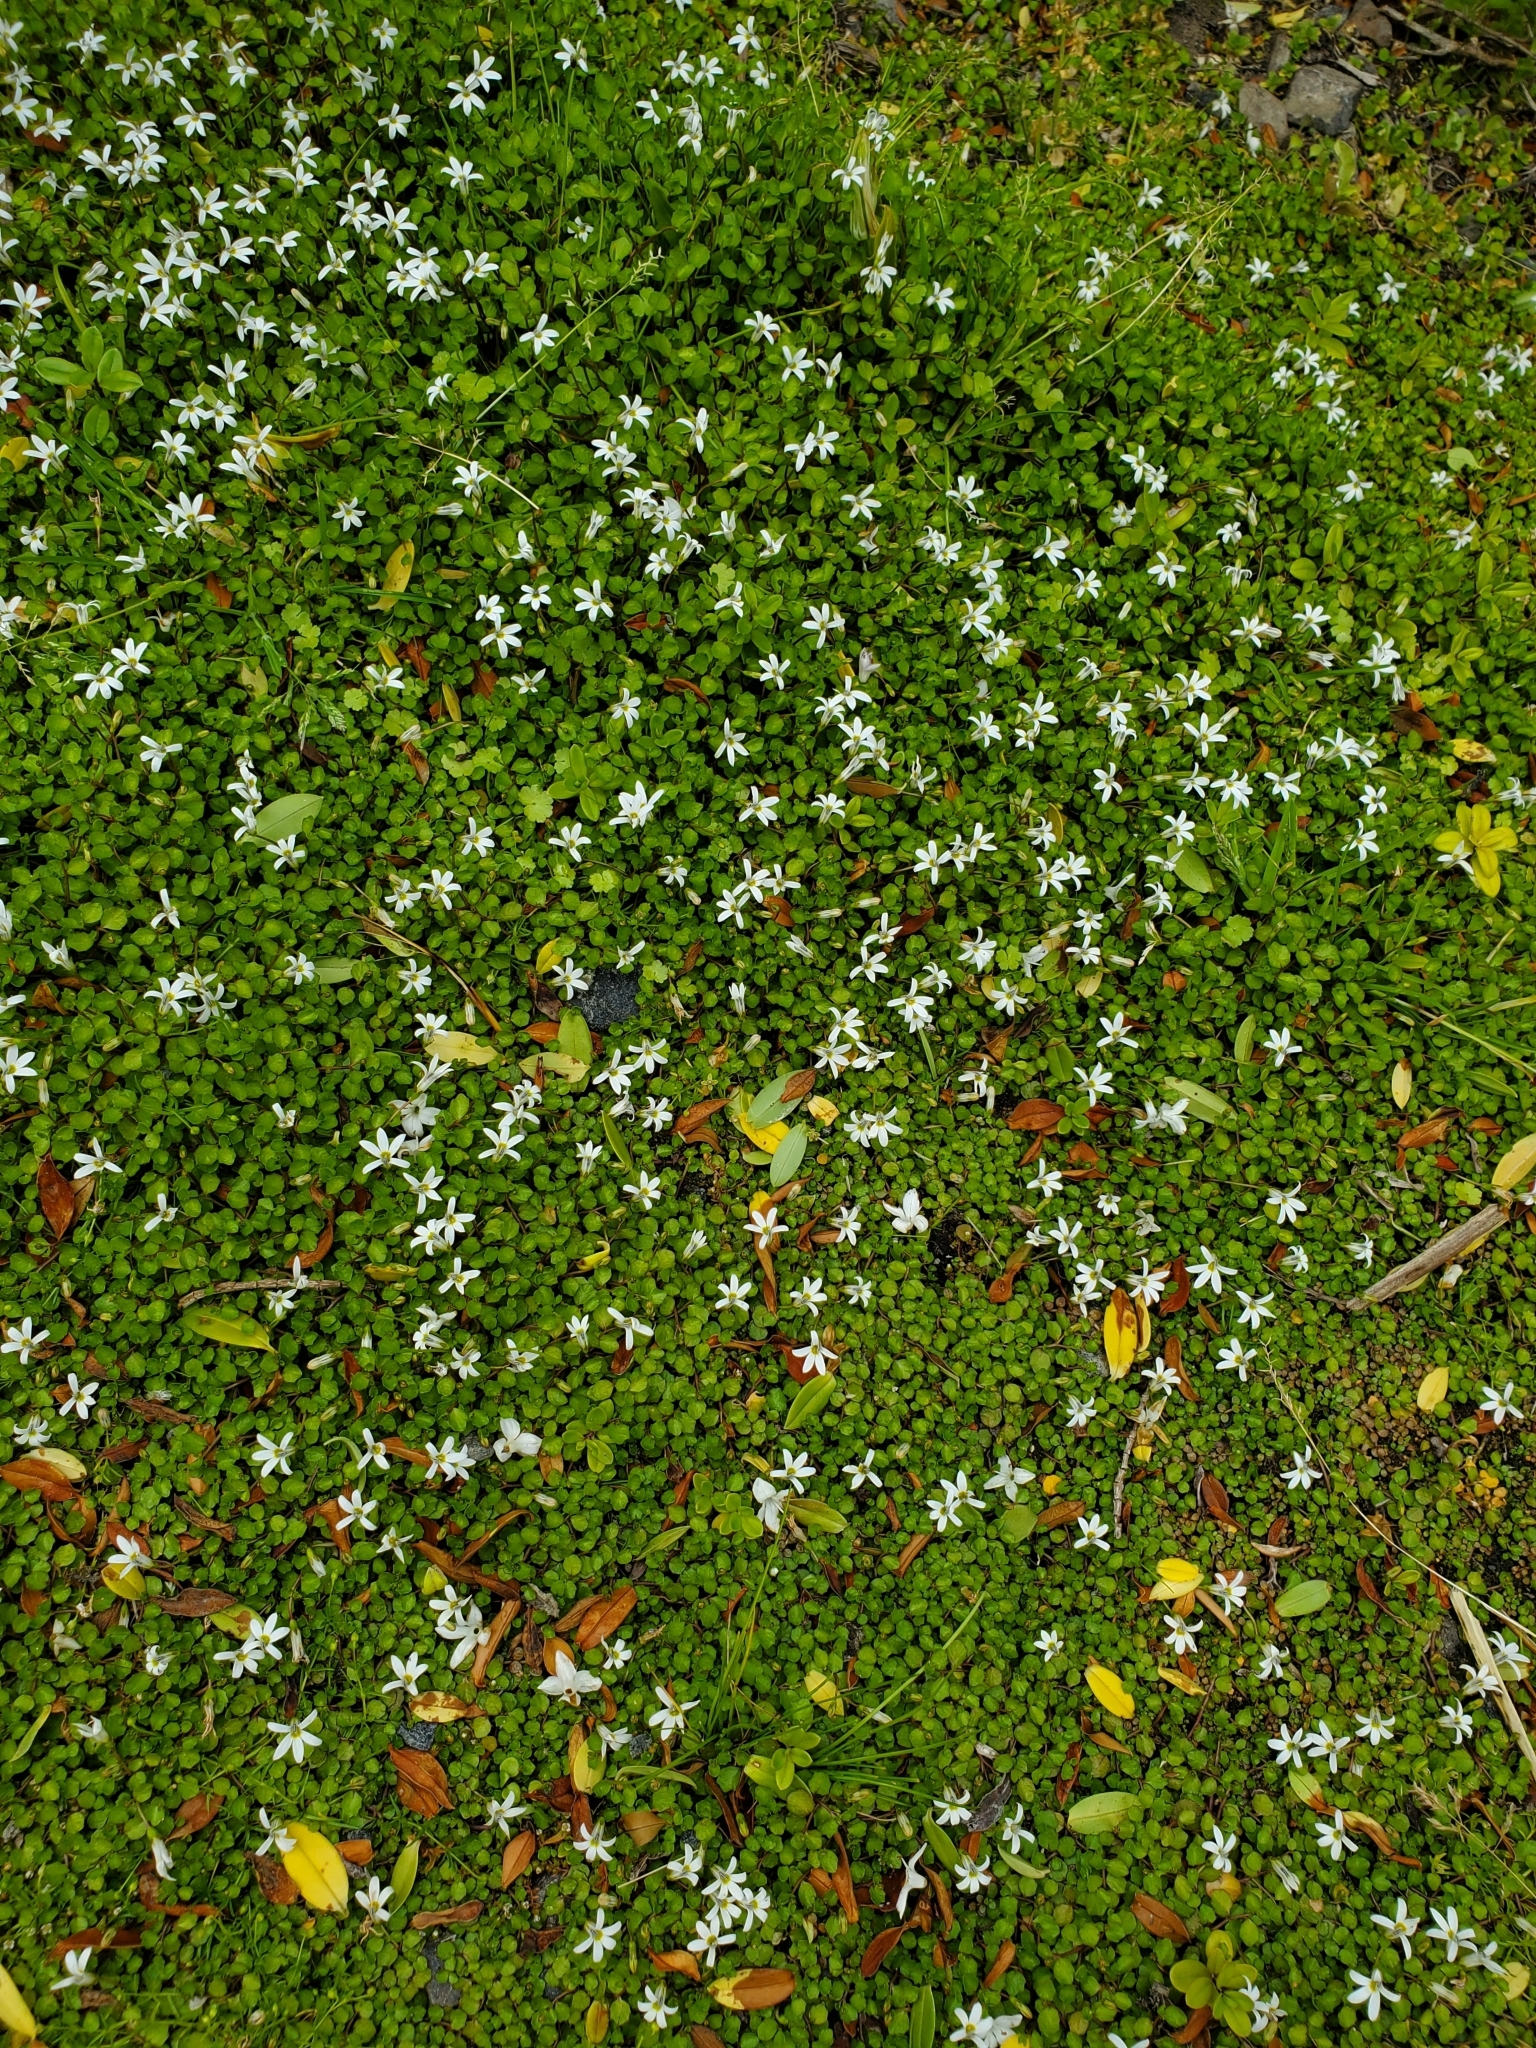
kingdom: Plantae
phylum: Tracheophyta
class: Magnoliopsida
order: Asterales
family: Campanulaceae
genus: Lobelia
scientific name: Lobelia angulata
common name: Lawn lobelia
